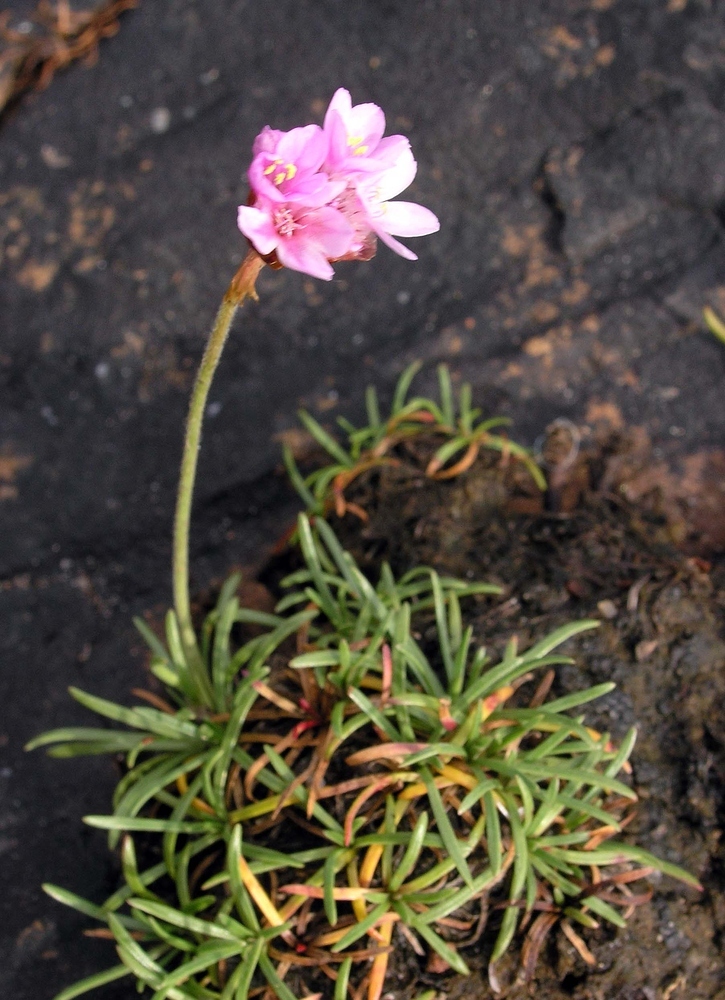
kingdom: Plantae
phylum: Tracheophyta
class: Magnoliopsida
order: Caryophyllales
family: Plumbaginaceae
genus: Armeria
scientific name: Armeria maritima
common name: Thrift
